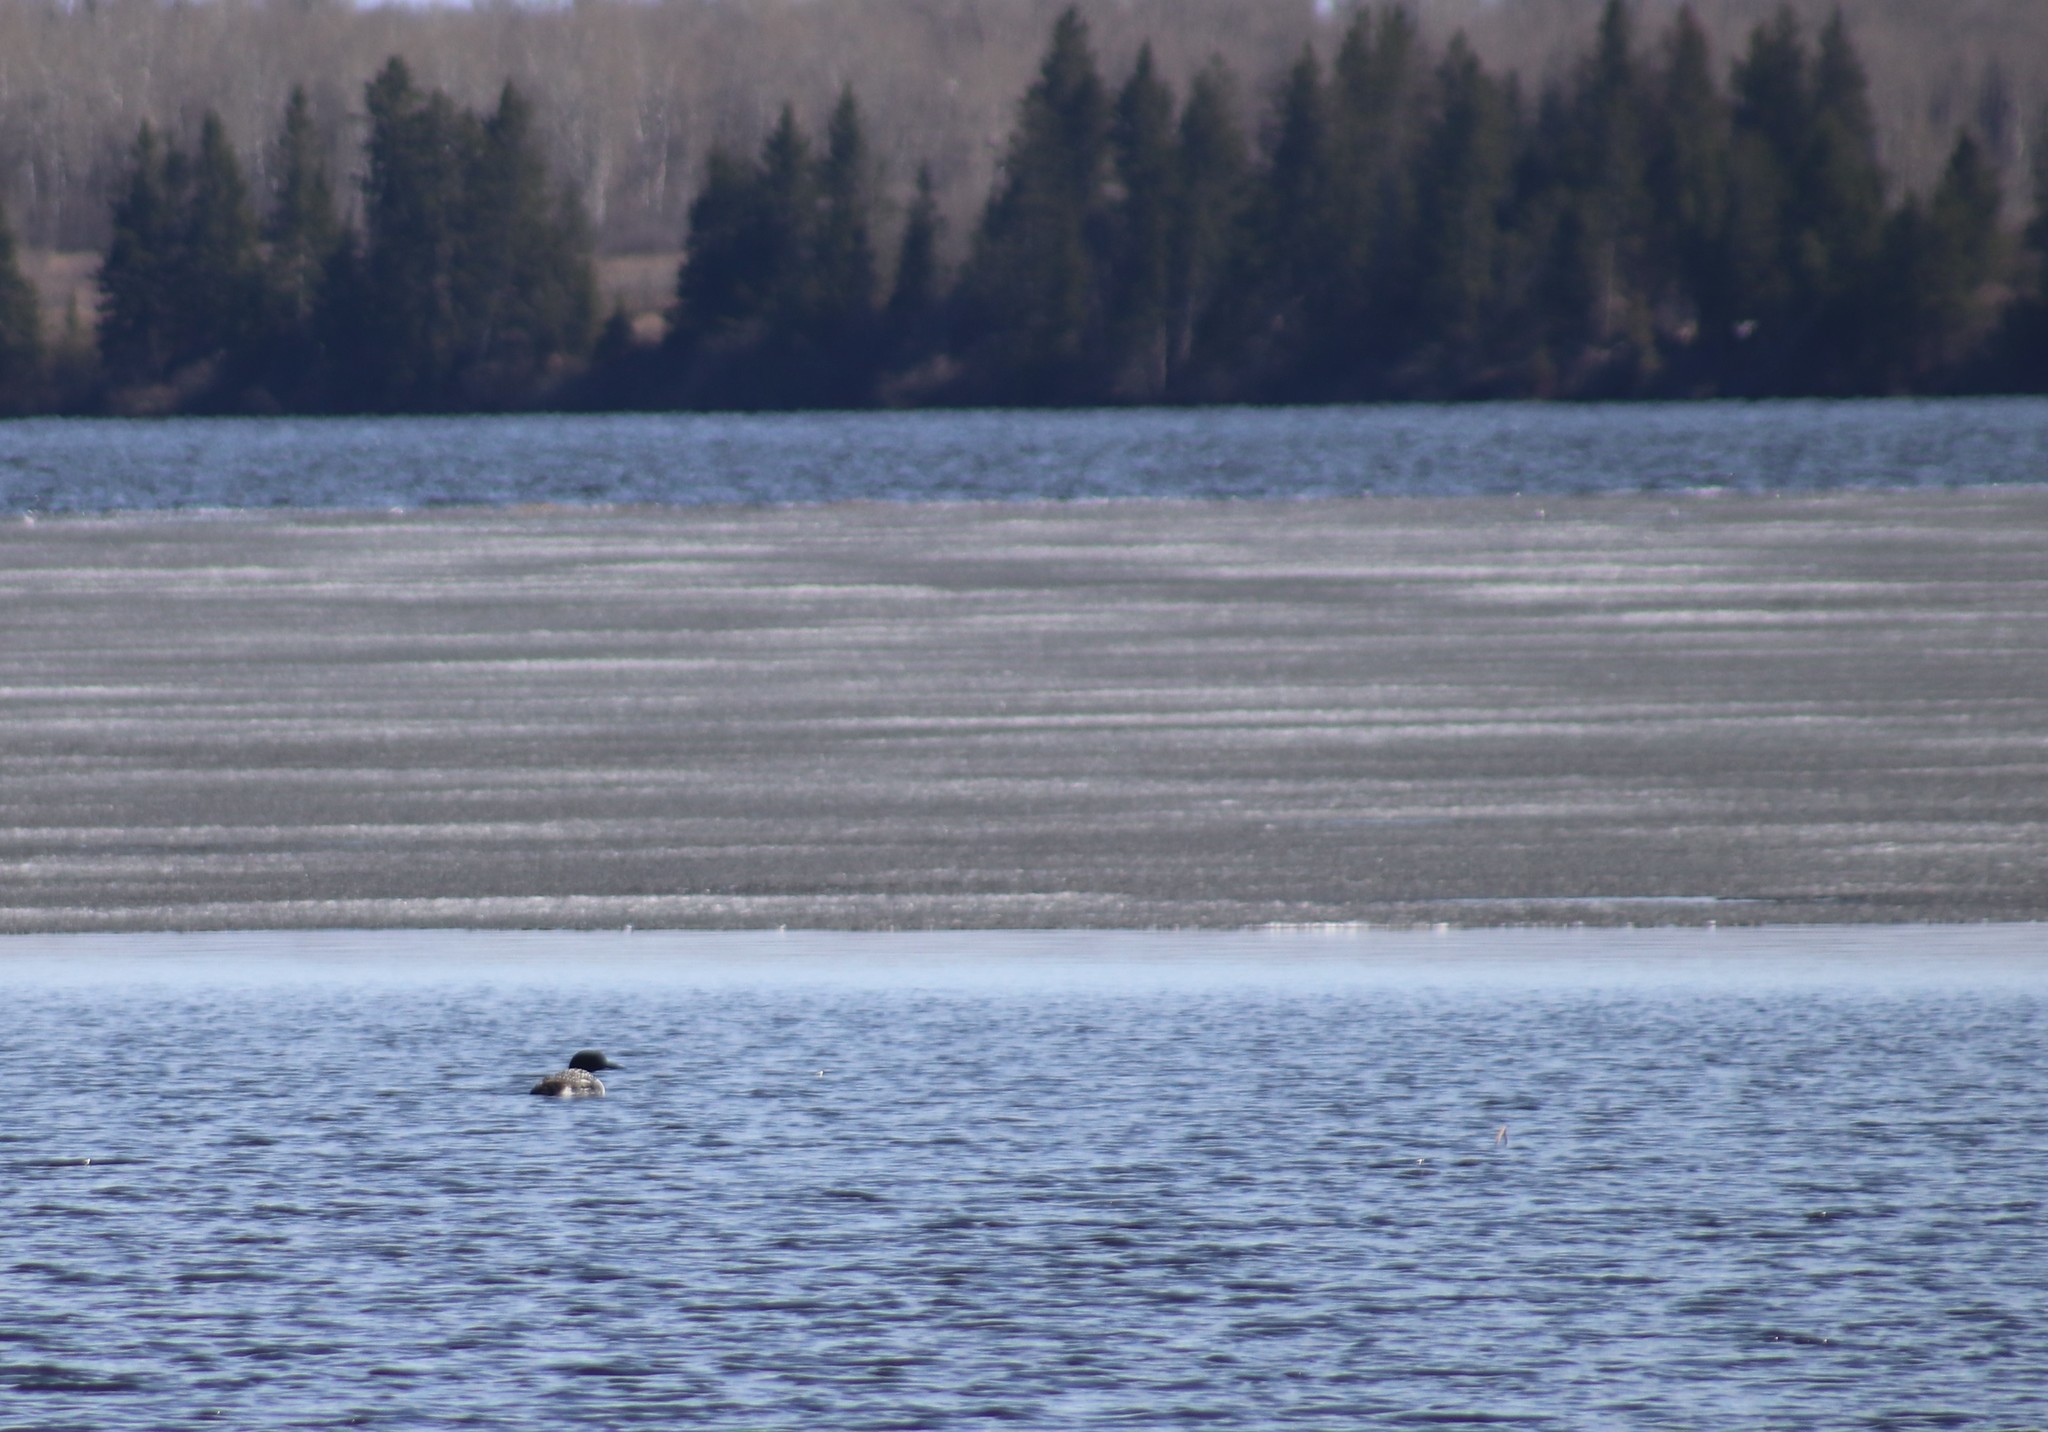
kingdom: Animalia
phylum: Chordata
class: Aves
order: Gaviiformes
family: Gaviidae
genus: Gavia
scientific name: Gavia immer
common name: Common loon
